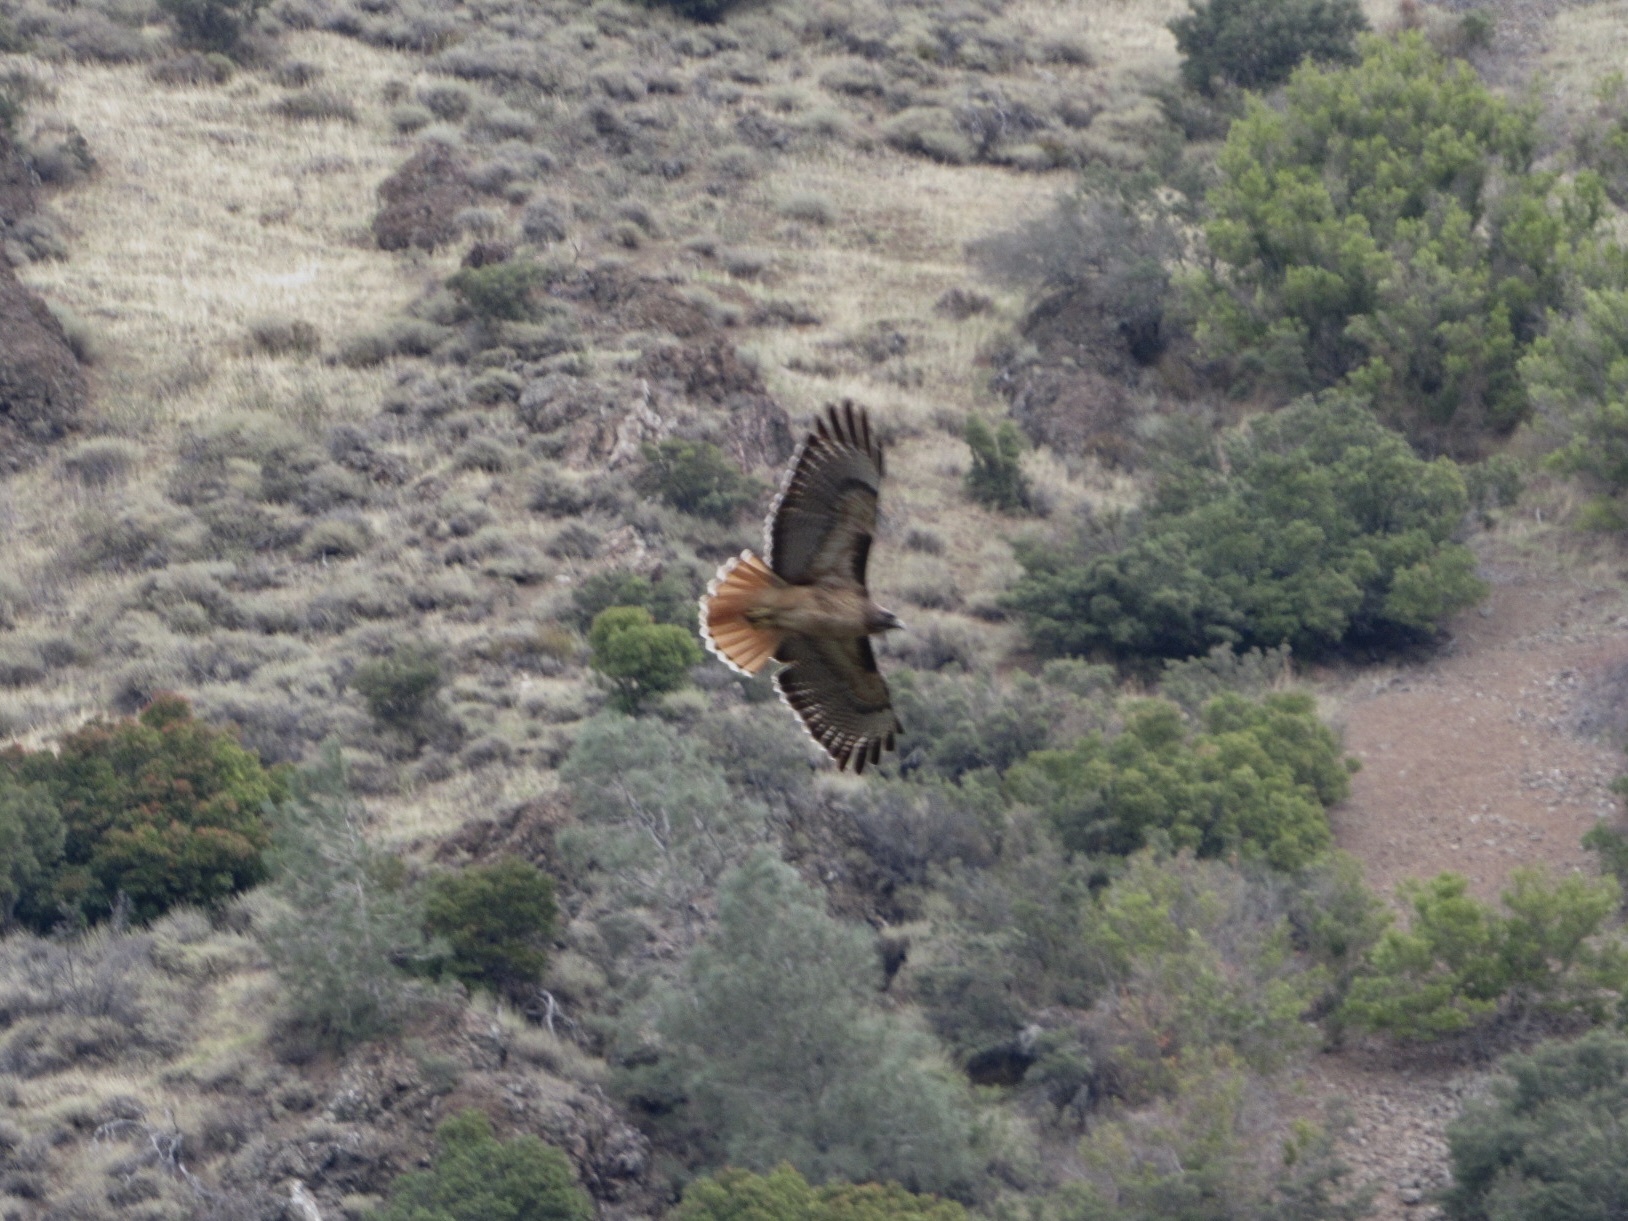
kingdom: Animalia
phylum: Chordata
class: Aves
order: Accipitriformes
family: Accipitridae
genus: Buteo
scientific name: Buteo jamaicensis
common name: Red-tailed hawk
